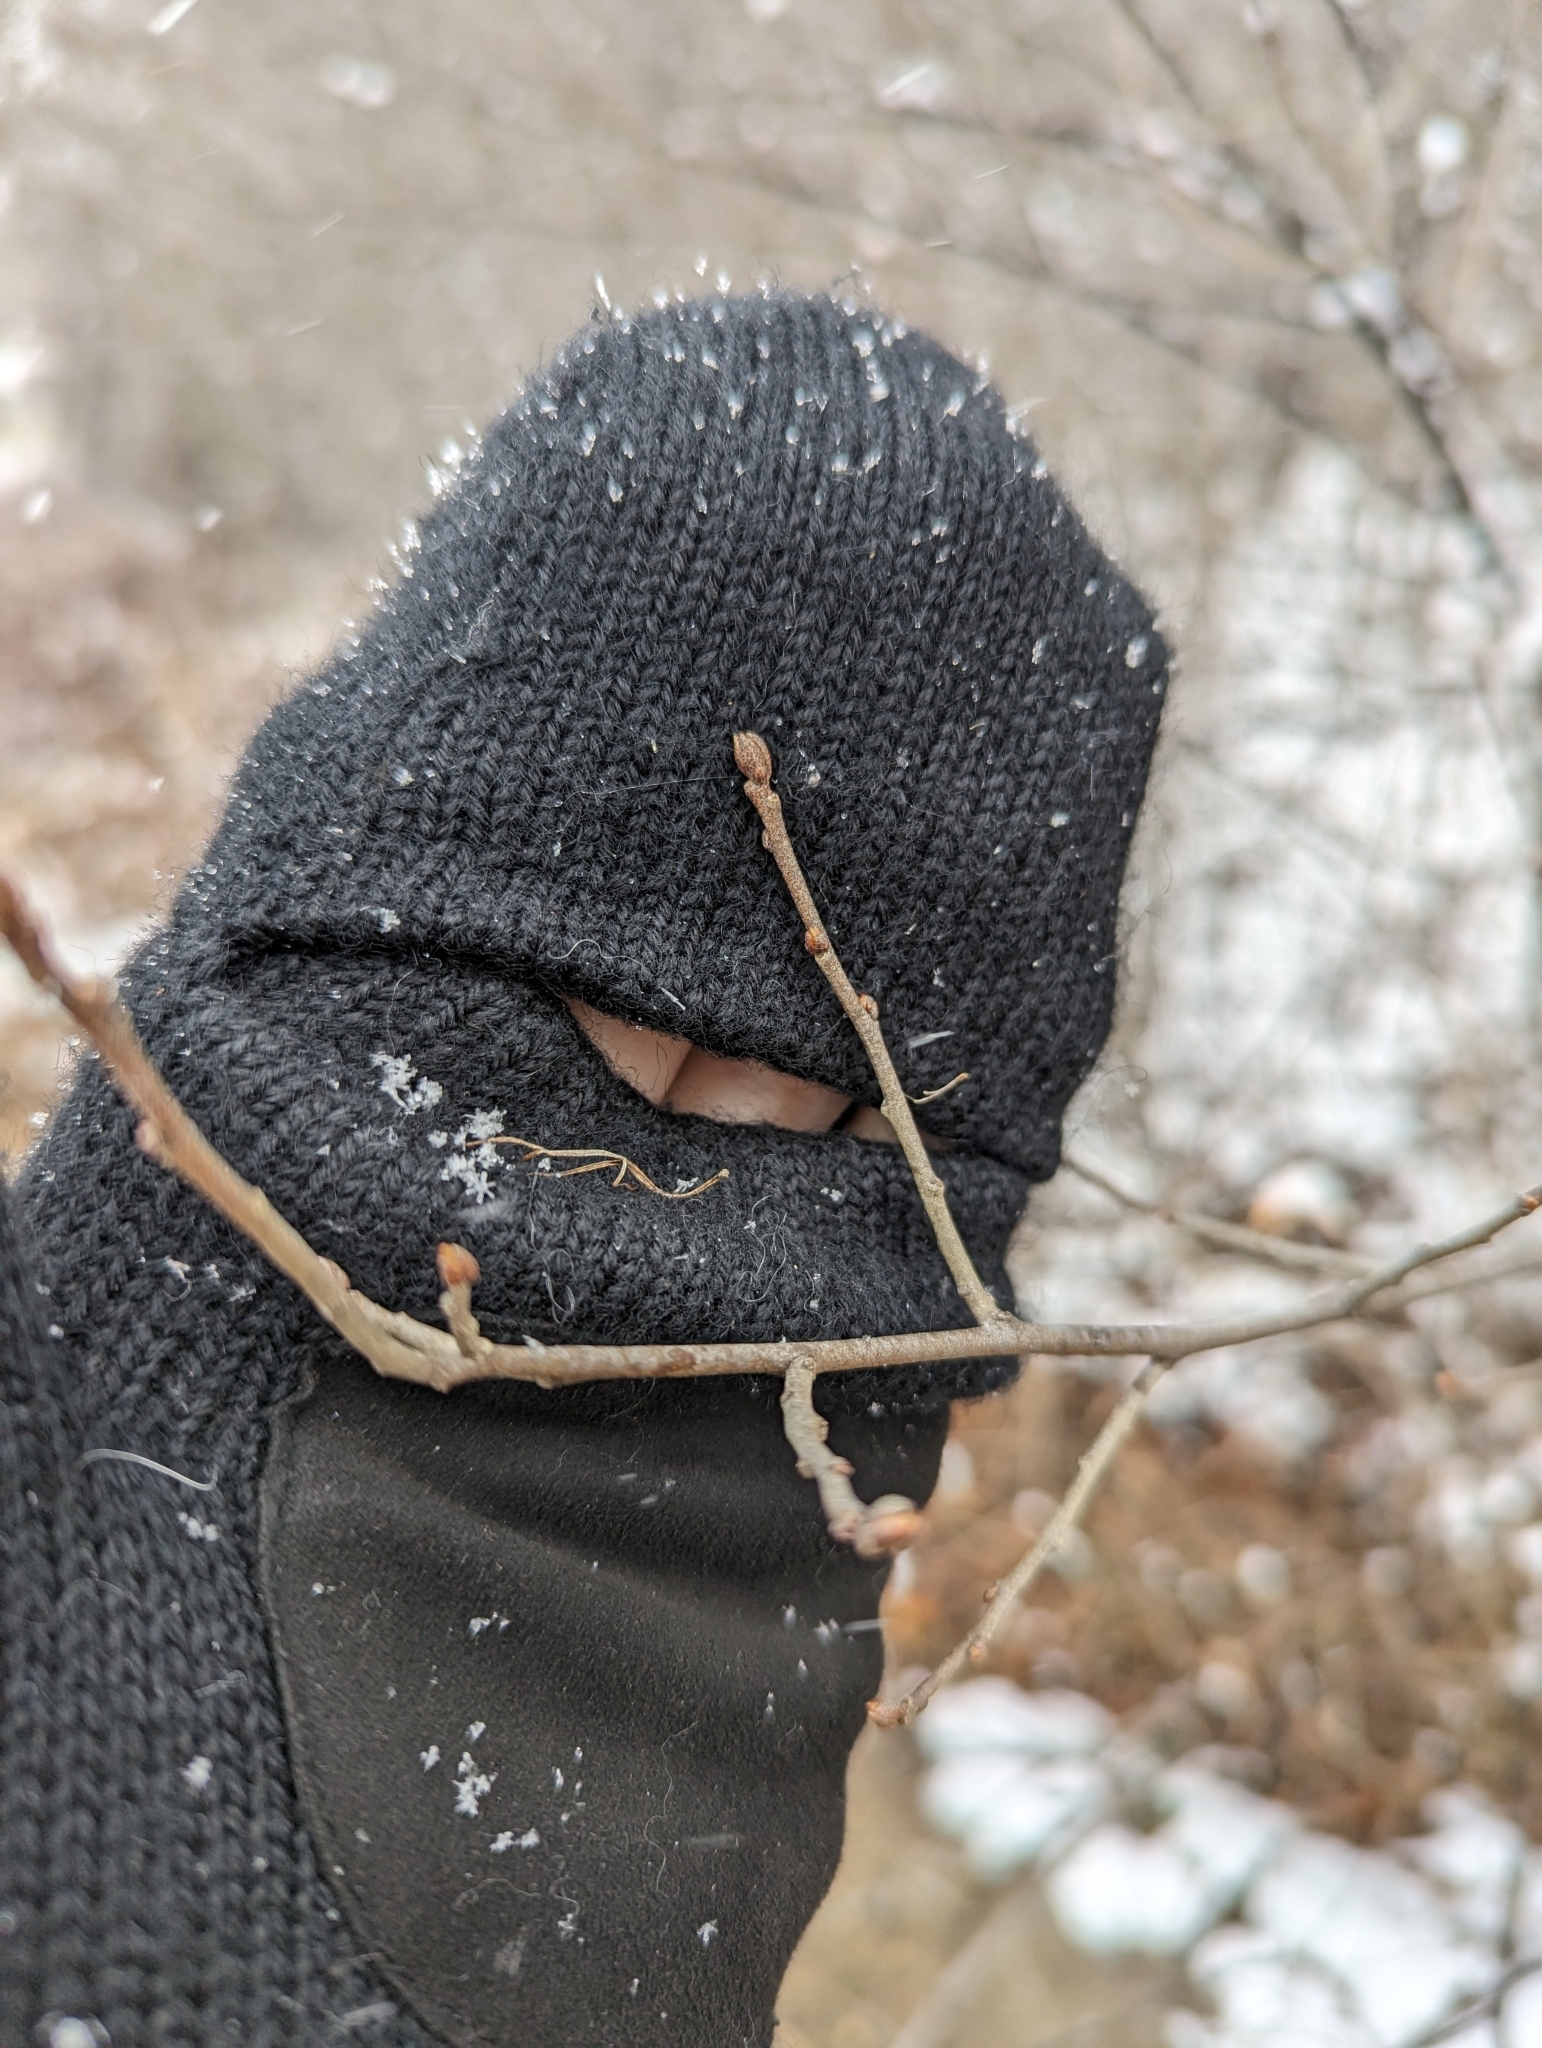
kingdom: Plantae
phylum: Tracheophyta
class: Magnoliopsida
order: Rosales
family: Elaeagnaceae
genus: Elaeagnus
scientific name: Elaeagnus umbellata
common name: Autumn olive
